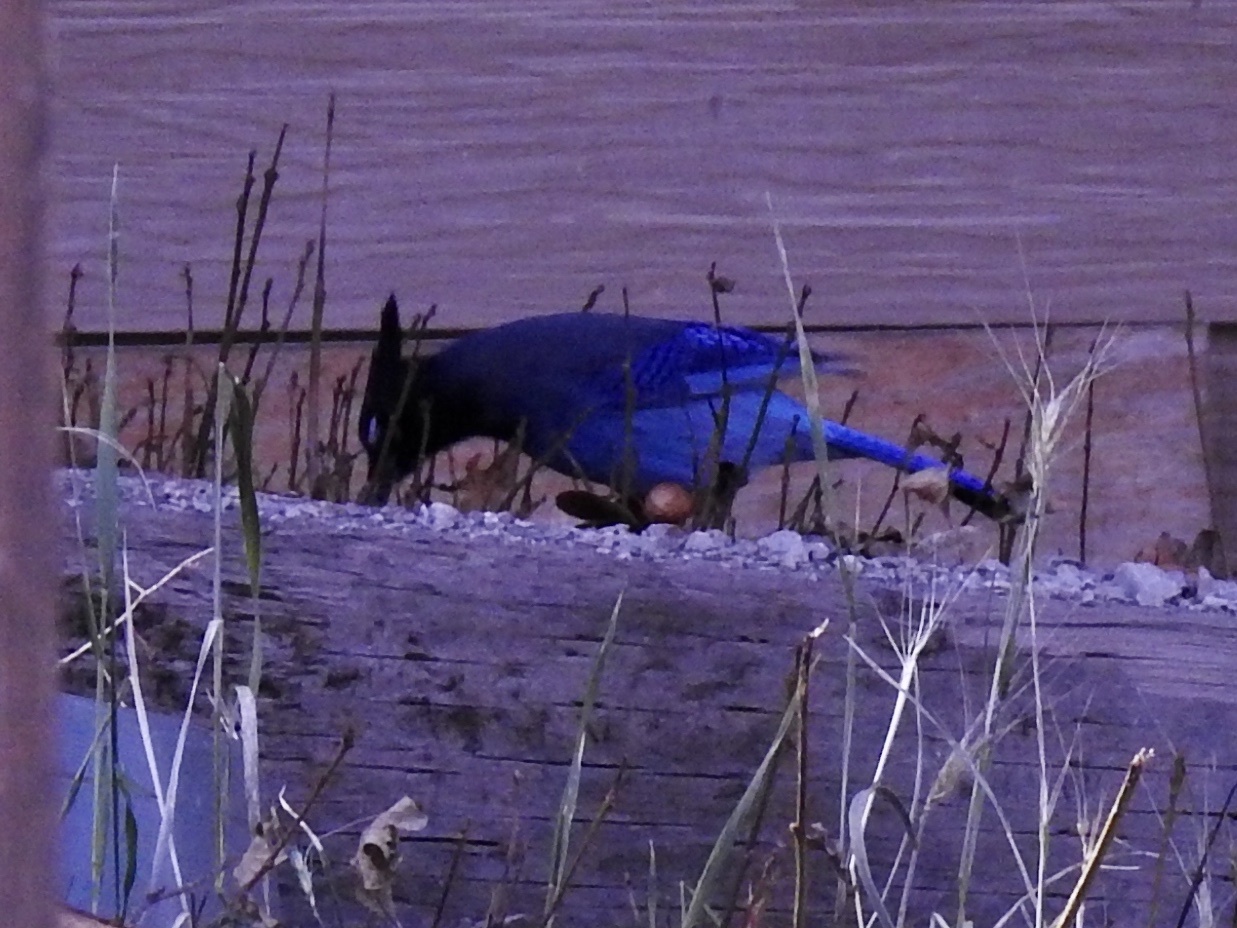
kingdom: Animalia
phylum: Chordata
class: Aves
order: Passeriformes
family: Corvidae
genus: Cyanocitta
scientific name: Cyanocitta stelleri
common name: Steller's jay
